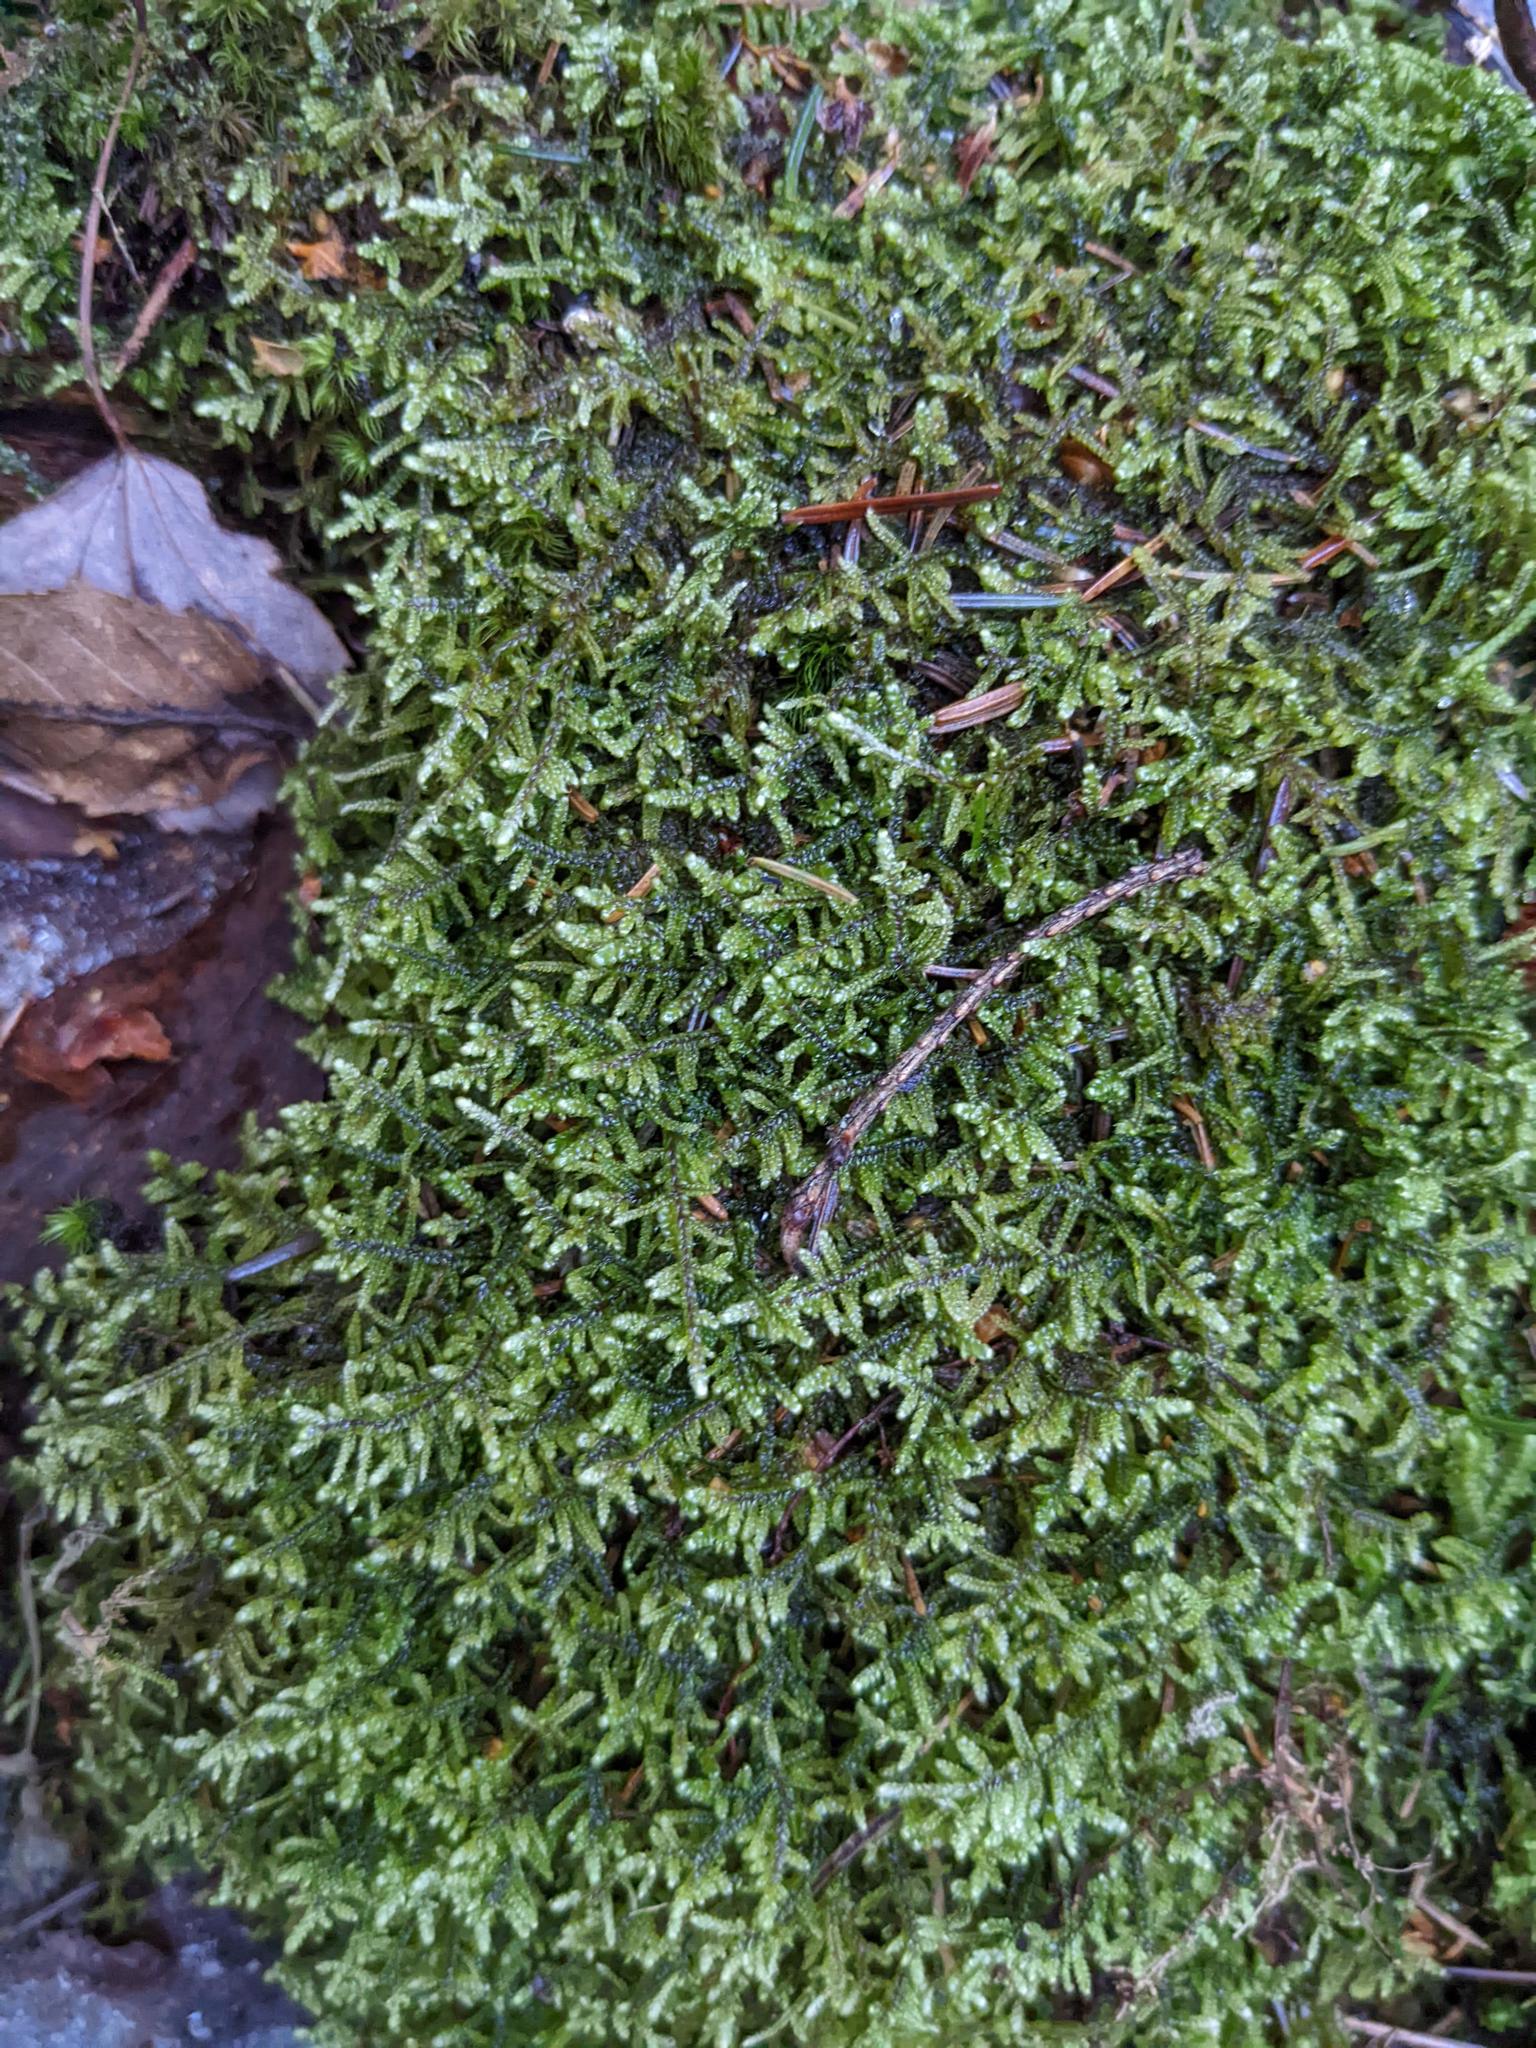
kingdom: Plantae
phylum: Bryophyta
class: Bryopsida
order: Hypnales
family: Callicladiaceae
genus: Callicladium
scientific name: Callicladium imponens
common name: Brocade moss
